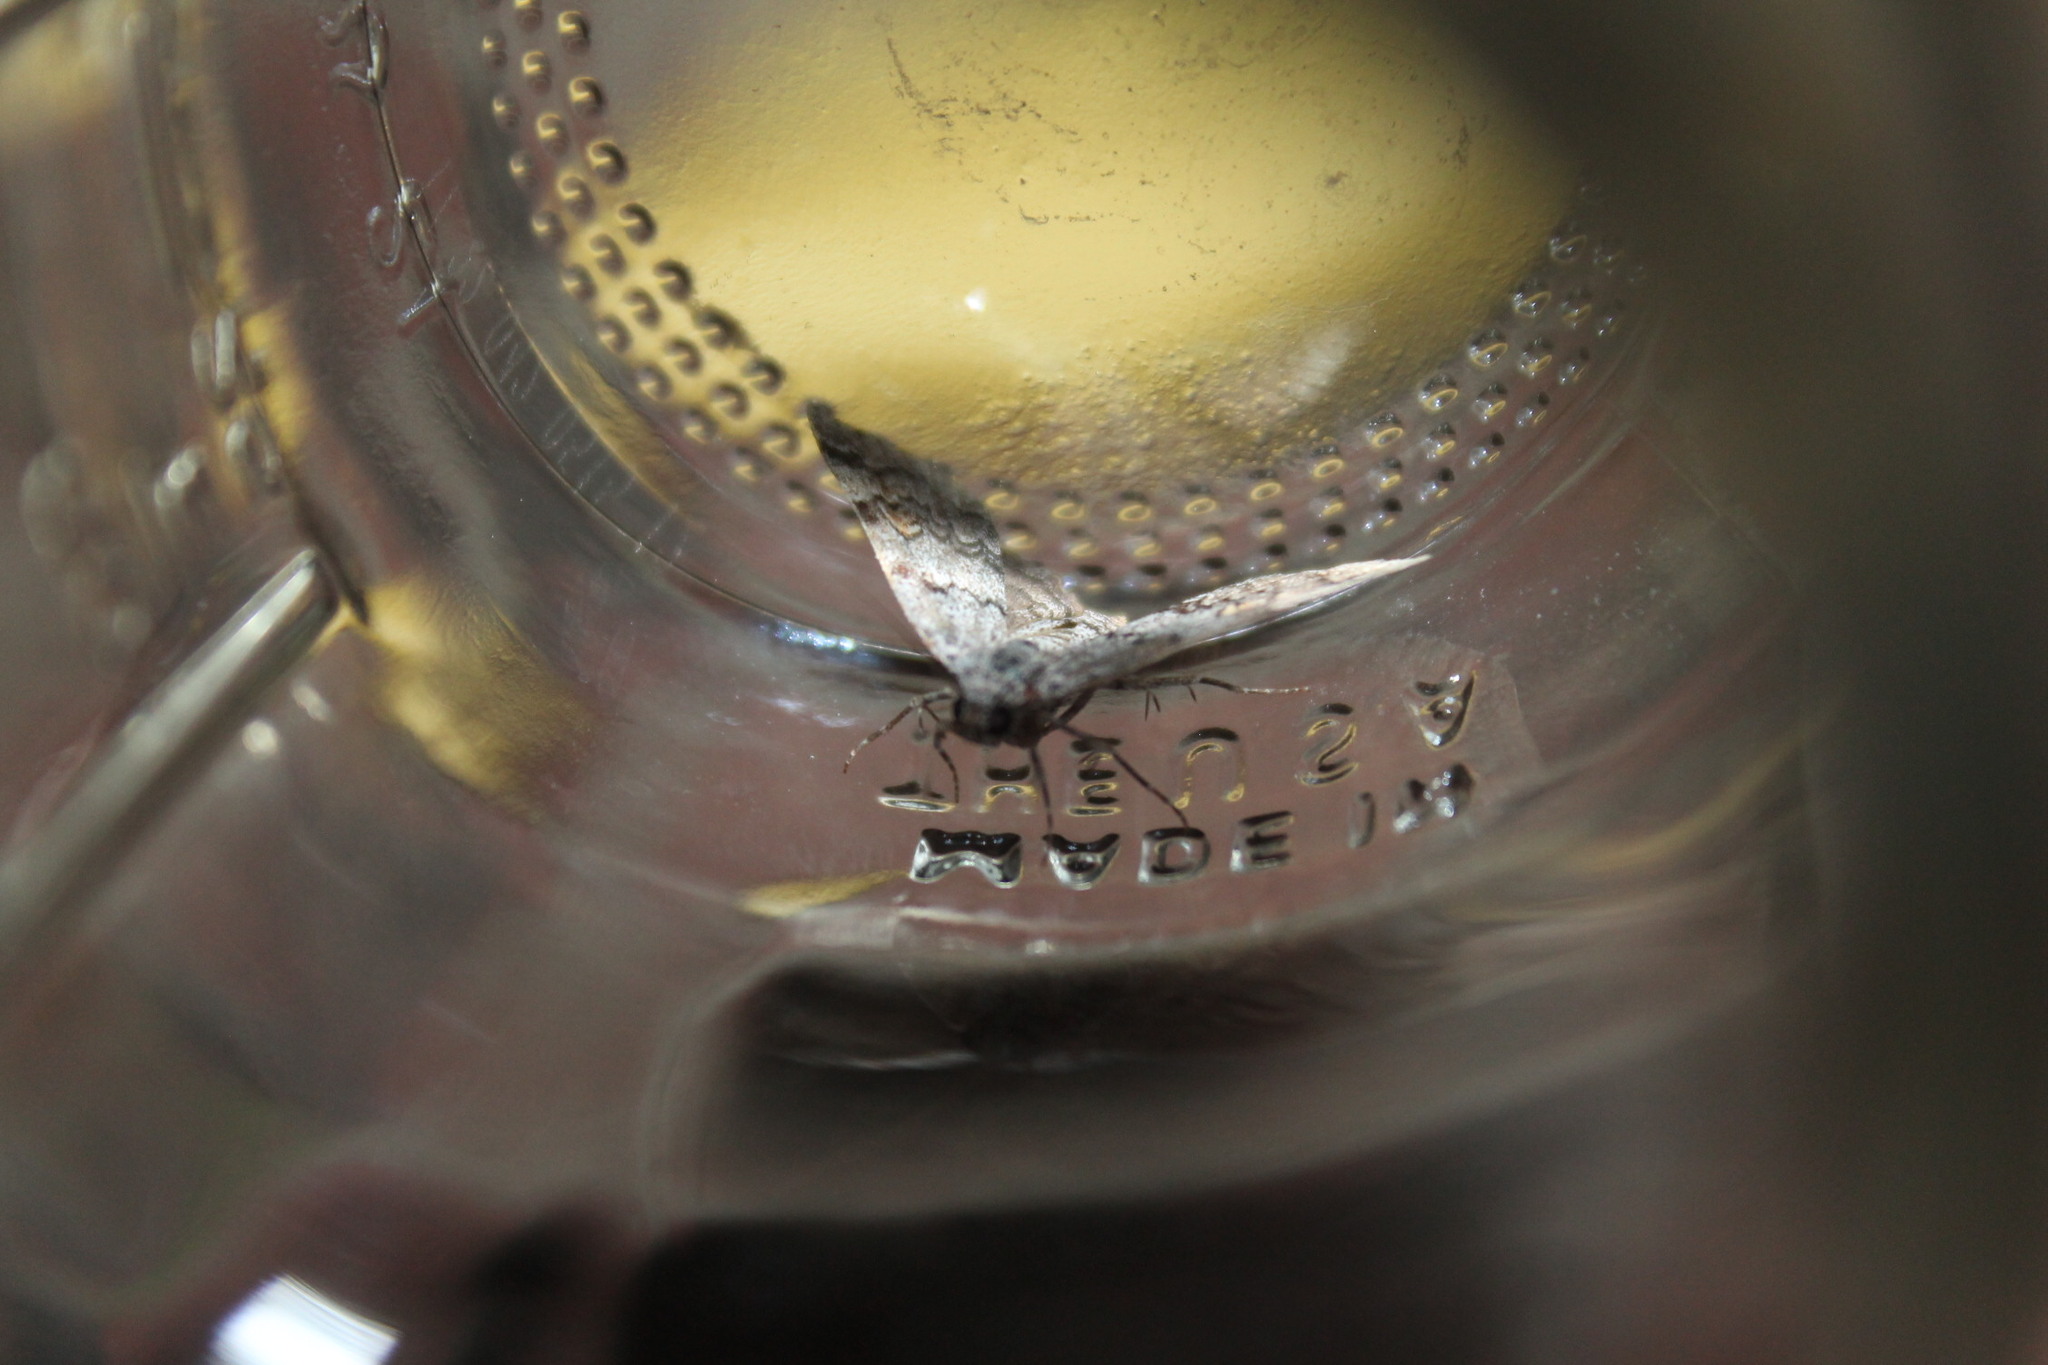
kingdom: Animalia
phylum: Arthropoda
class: Insecta
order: Lepidoptera
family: Erebidae
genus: Idia
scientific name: Idia americalis
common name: American idia moth
